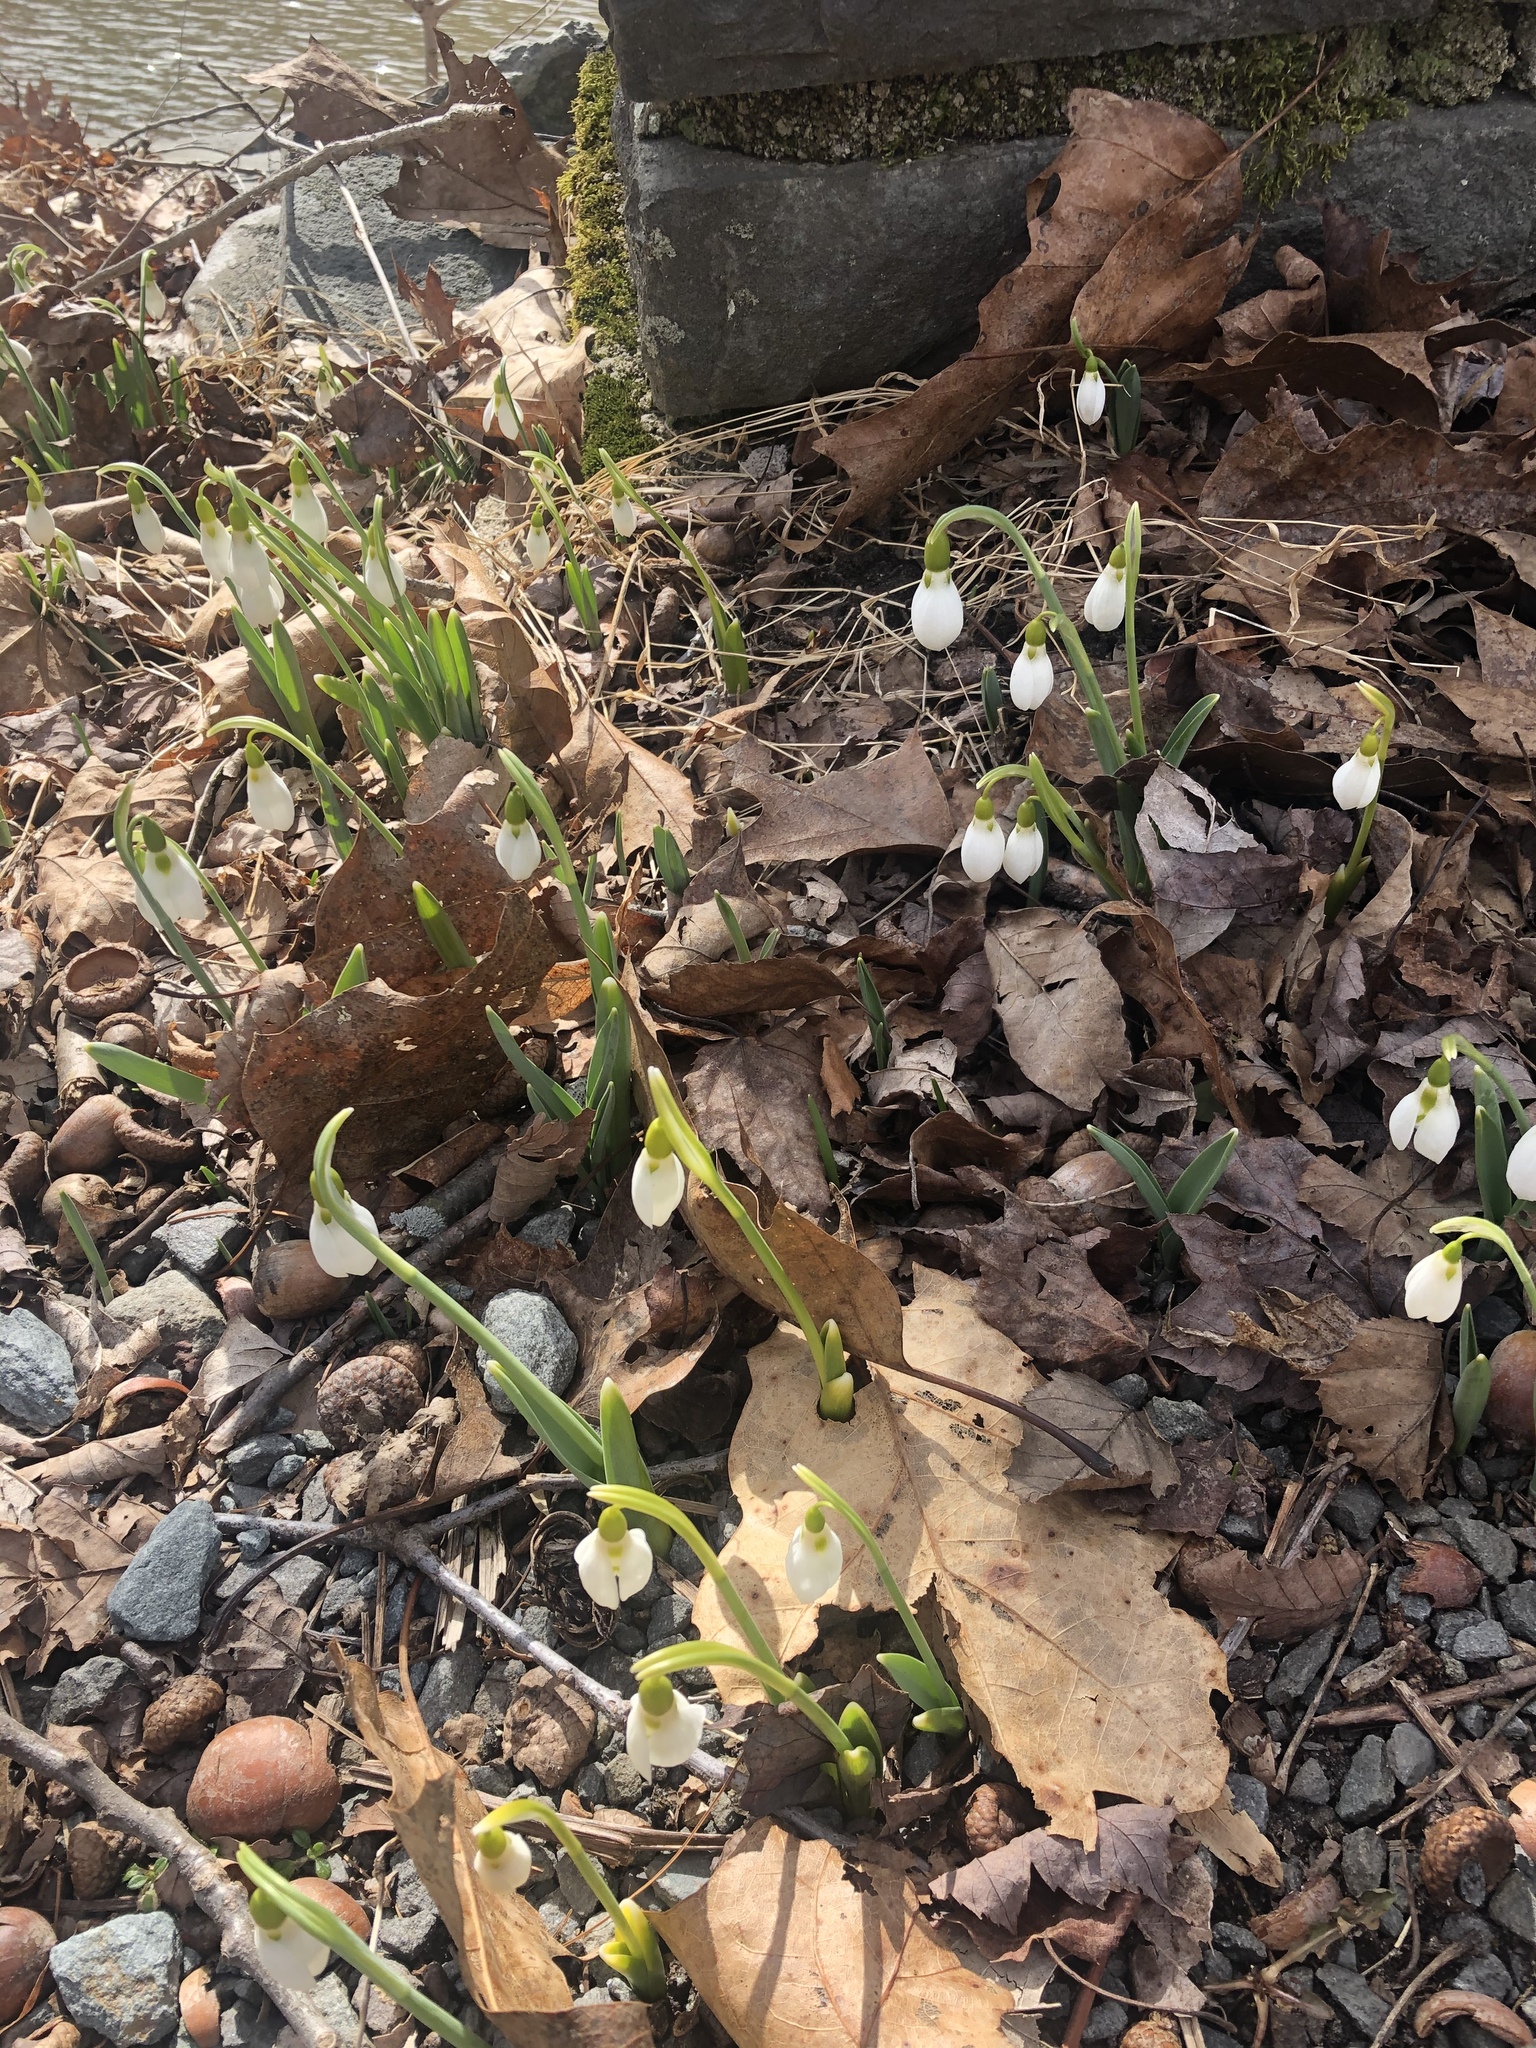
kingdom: Plantae
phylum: Tracheophyta
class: Liliopsida
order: Asparagales
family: Amaryllidaceae
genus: Galanthus
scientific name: Galanthus elwesii
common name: Greater snowdrop
